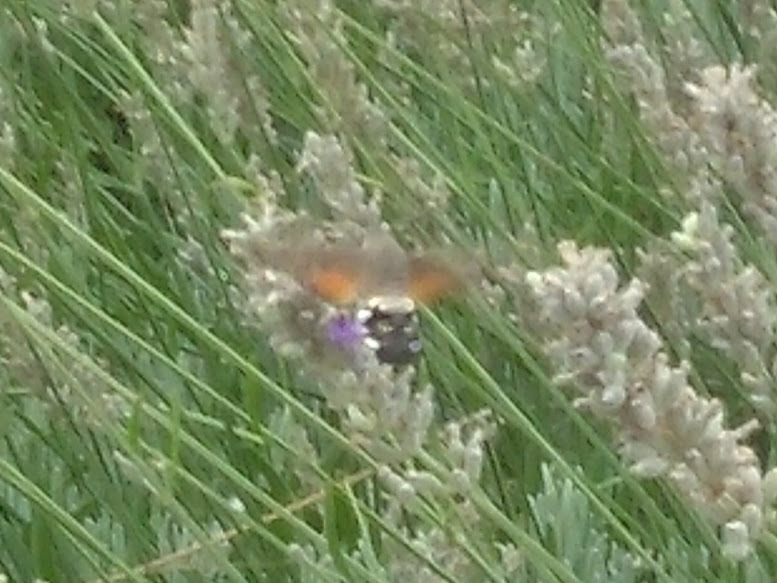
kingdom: Animalia
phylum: Arthropoda
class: Insecta
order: Lepidoptera
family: Sphingidae
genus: Macroglossum
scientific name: Macroglossum stellatarum
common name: Humming-bird hawk-moth
